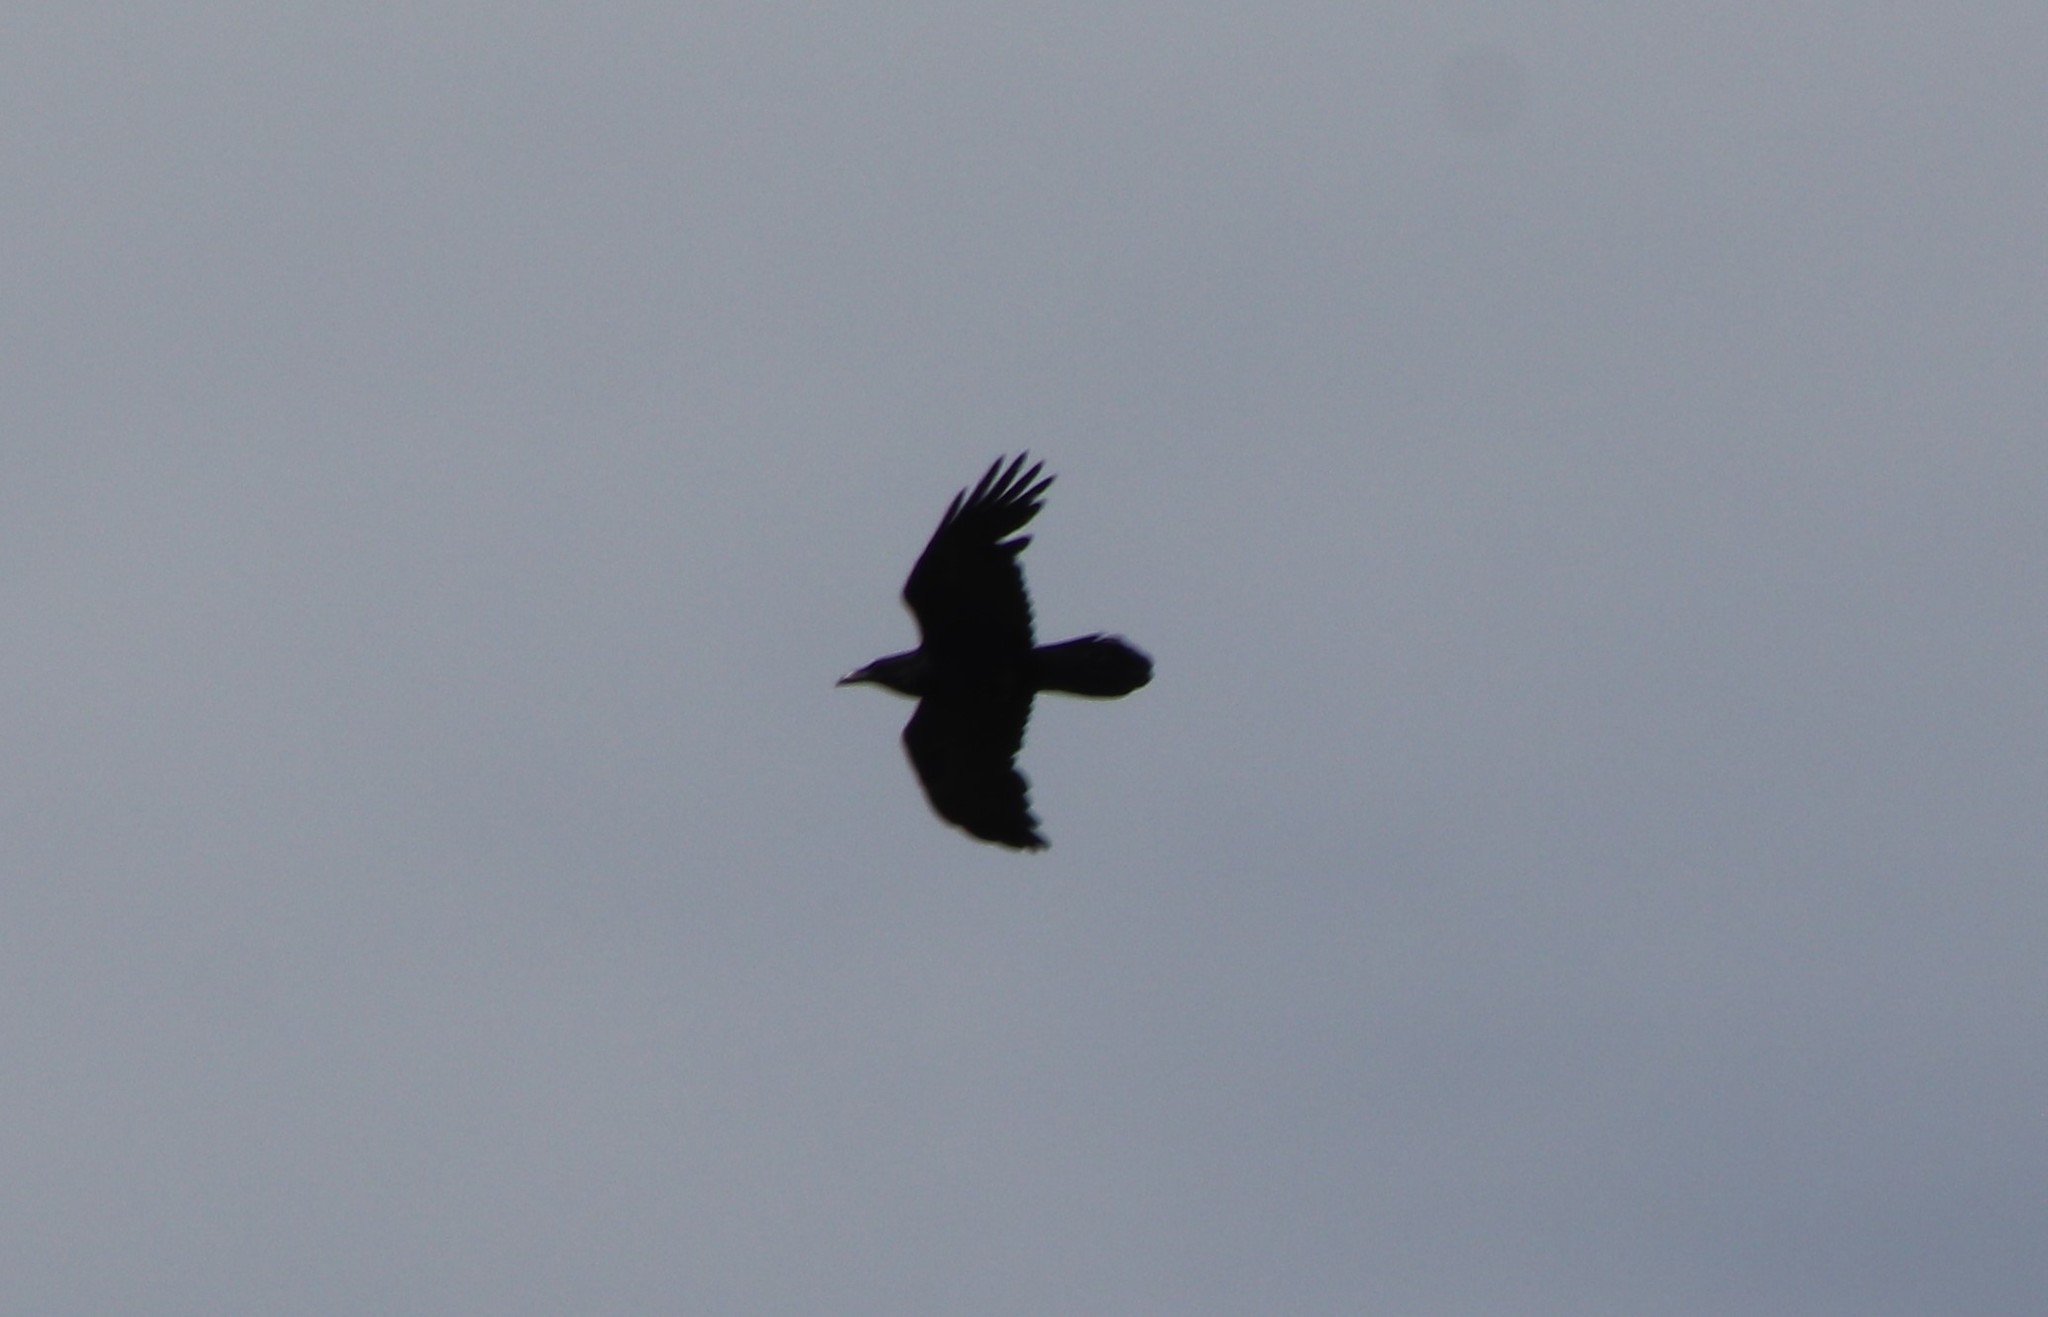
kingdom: Animalia
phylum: Chordata
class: Aves
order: Passeriformes
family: Corvidae
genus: Corvus
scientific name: Corvus corax
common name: Common raven
